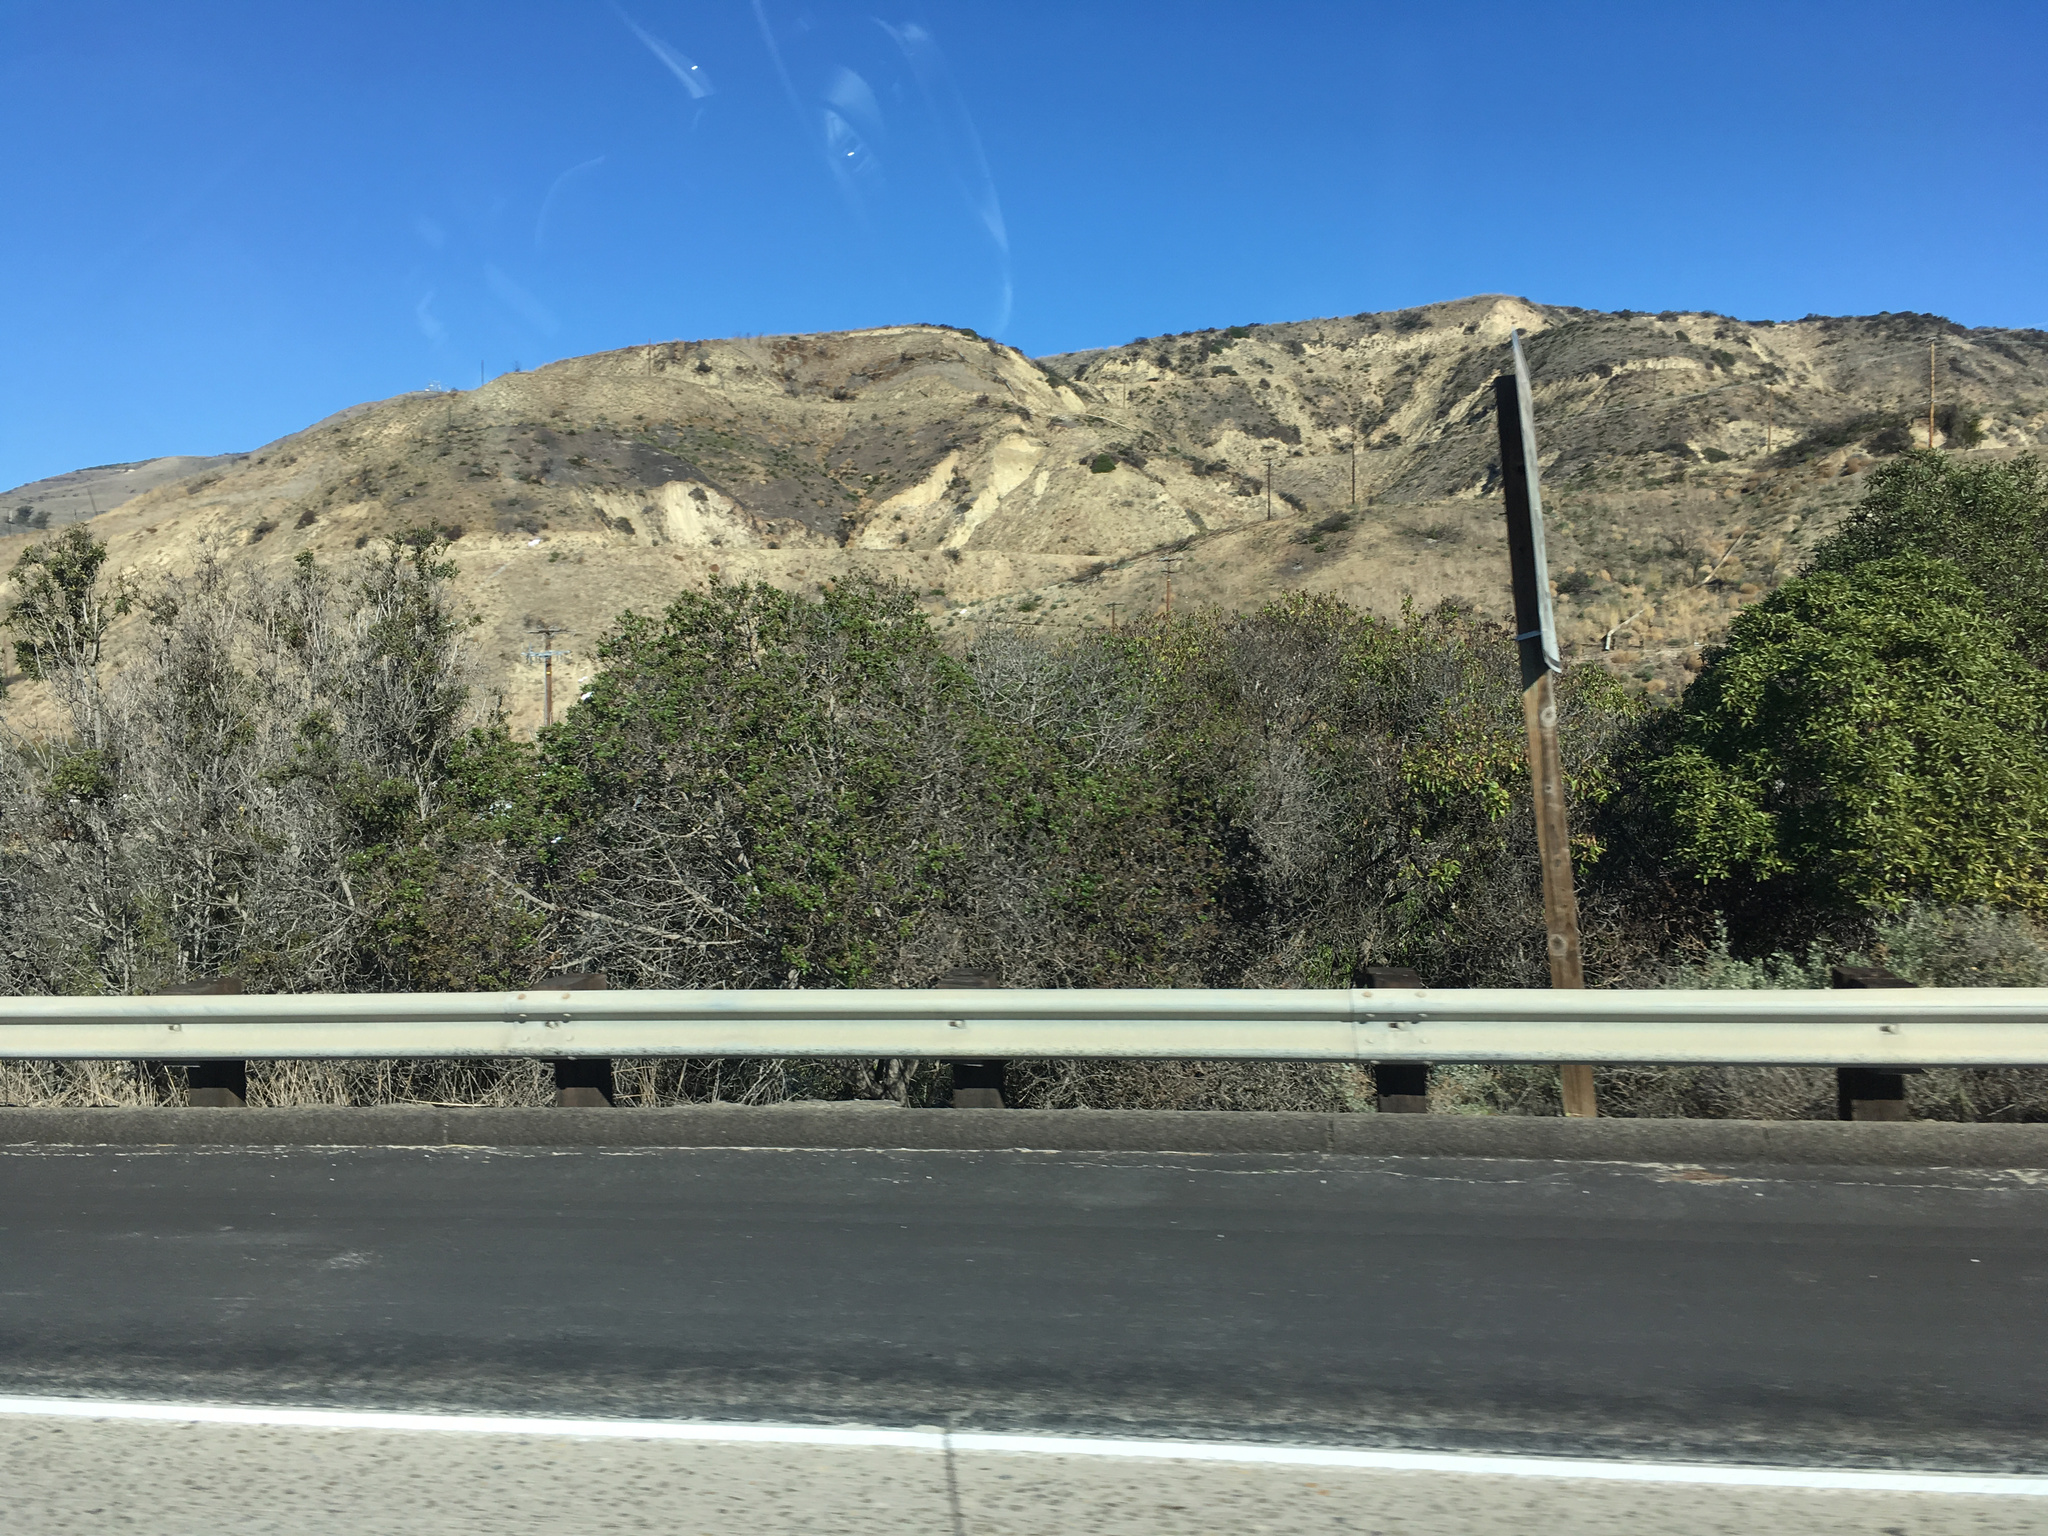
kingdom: Plantae
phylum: Tracheophyta
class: Magnoliopsida
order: Lamiales
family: Scrophulariaceae
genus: Myoporum
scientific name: Myoporum laetum
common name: Ngaio tree
